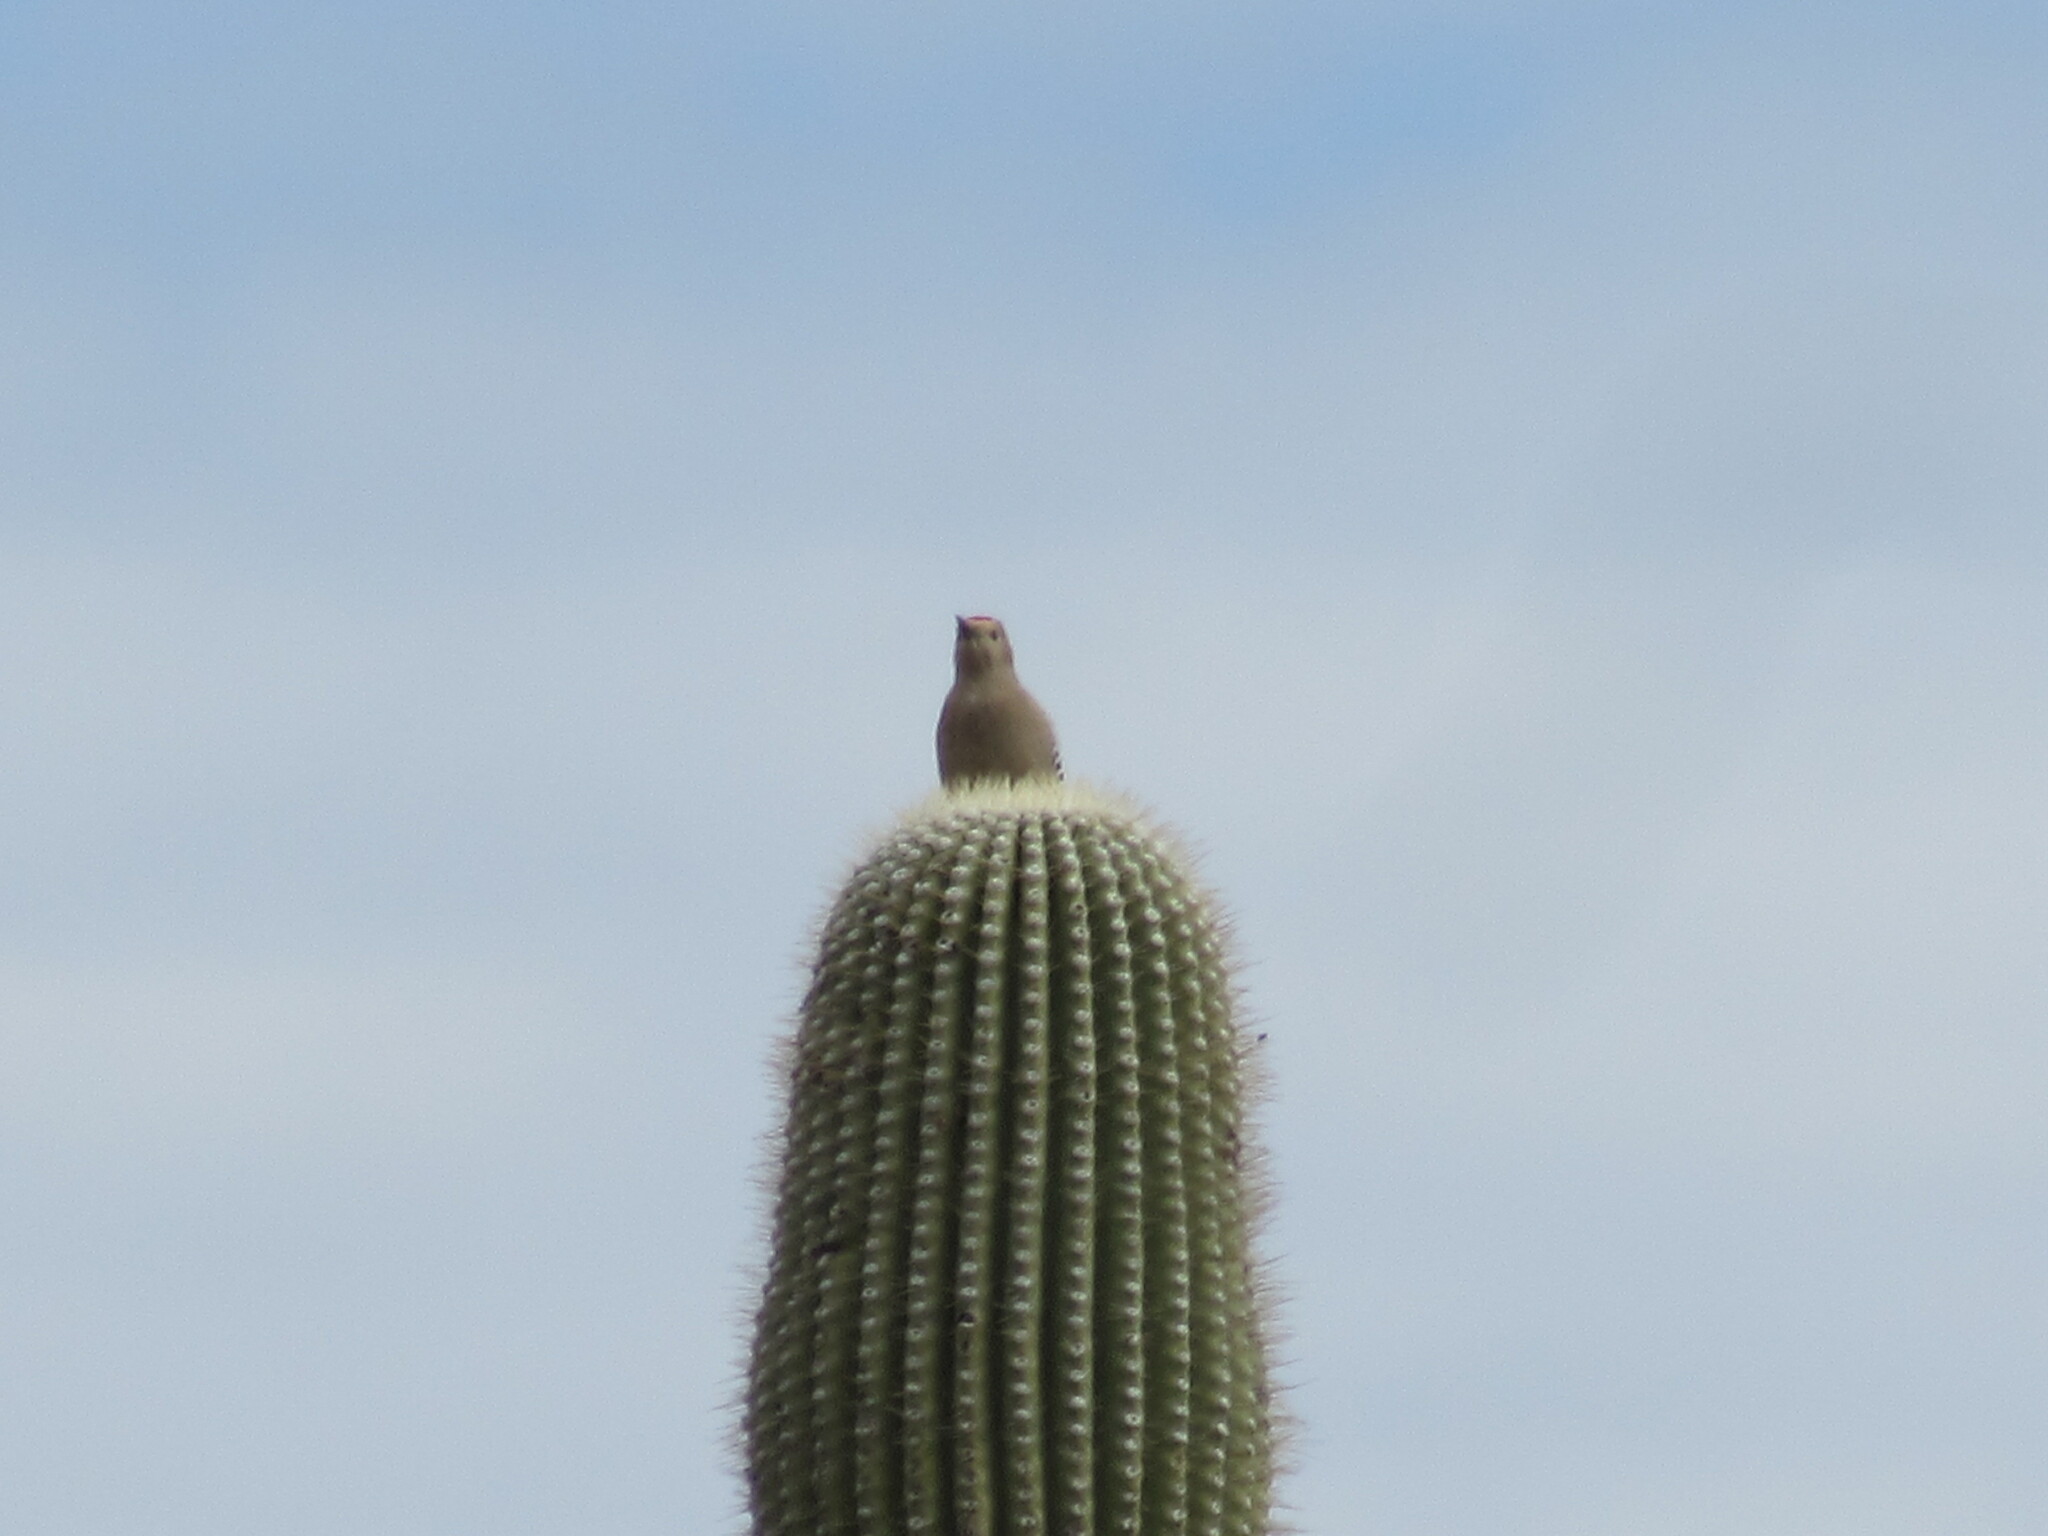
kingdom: Animalia
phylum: Chordata
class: Aves
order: Piciformes
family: Picidae
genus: Melanerpes
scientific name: Melanerpes uropygialis
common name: Gila woodpecker
